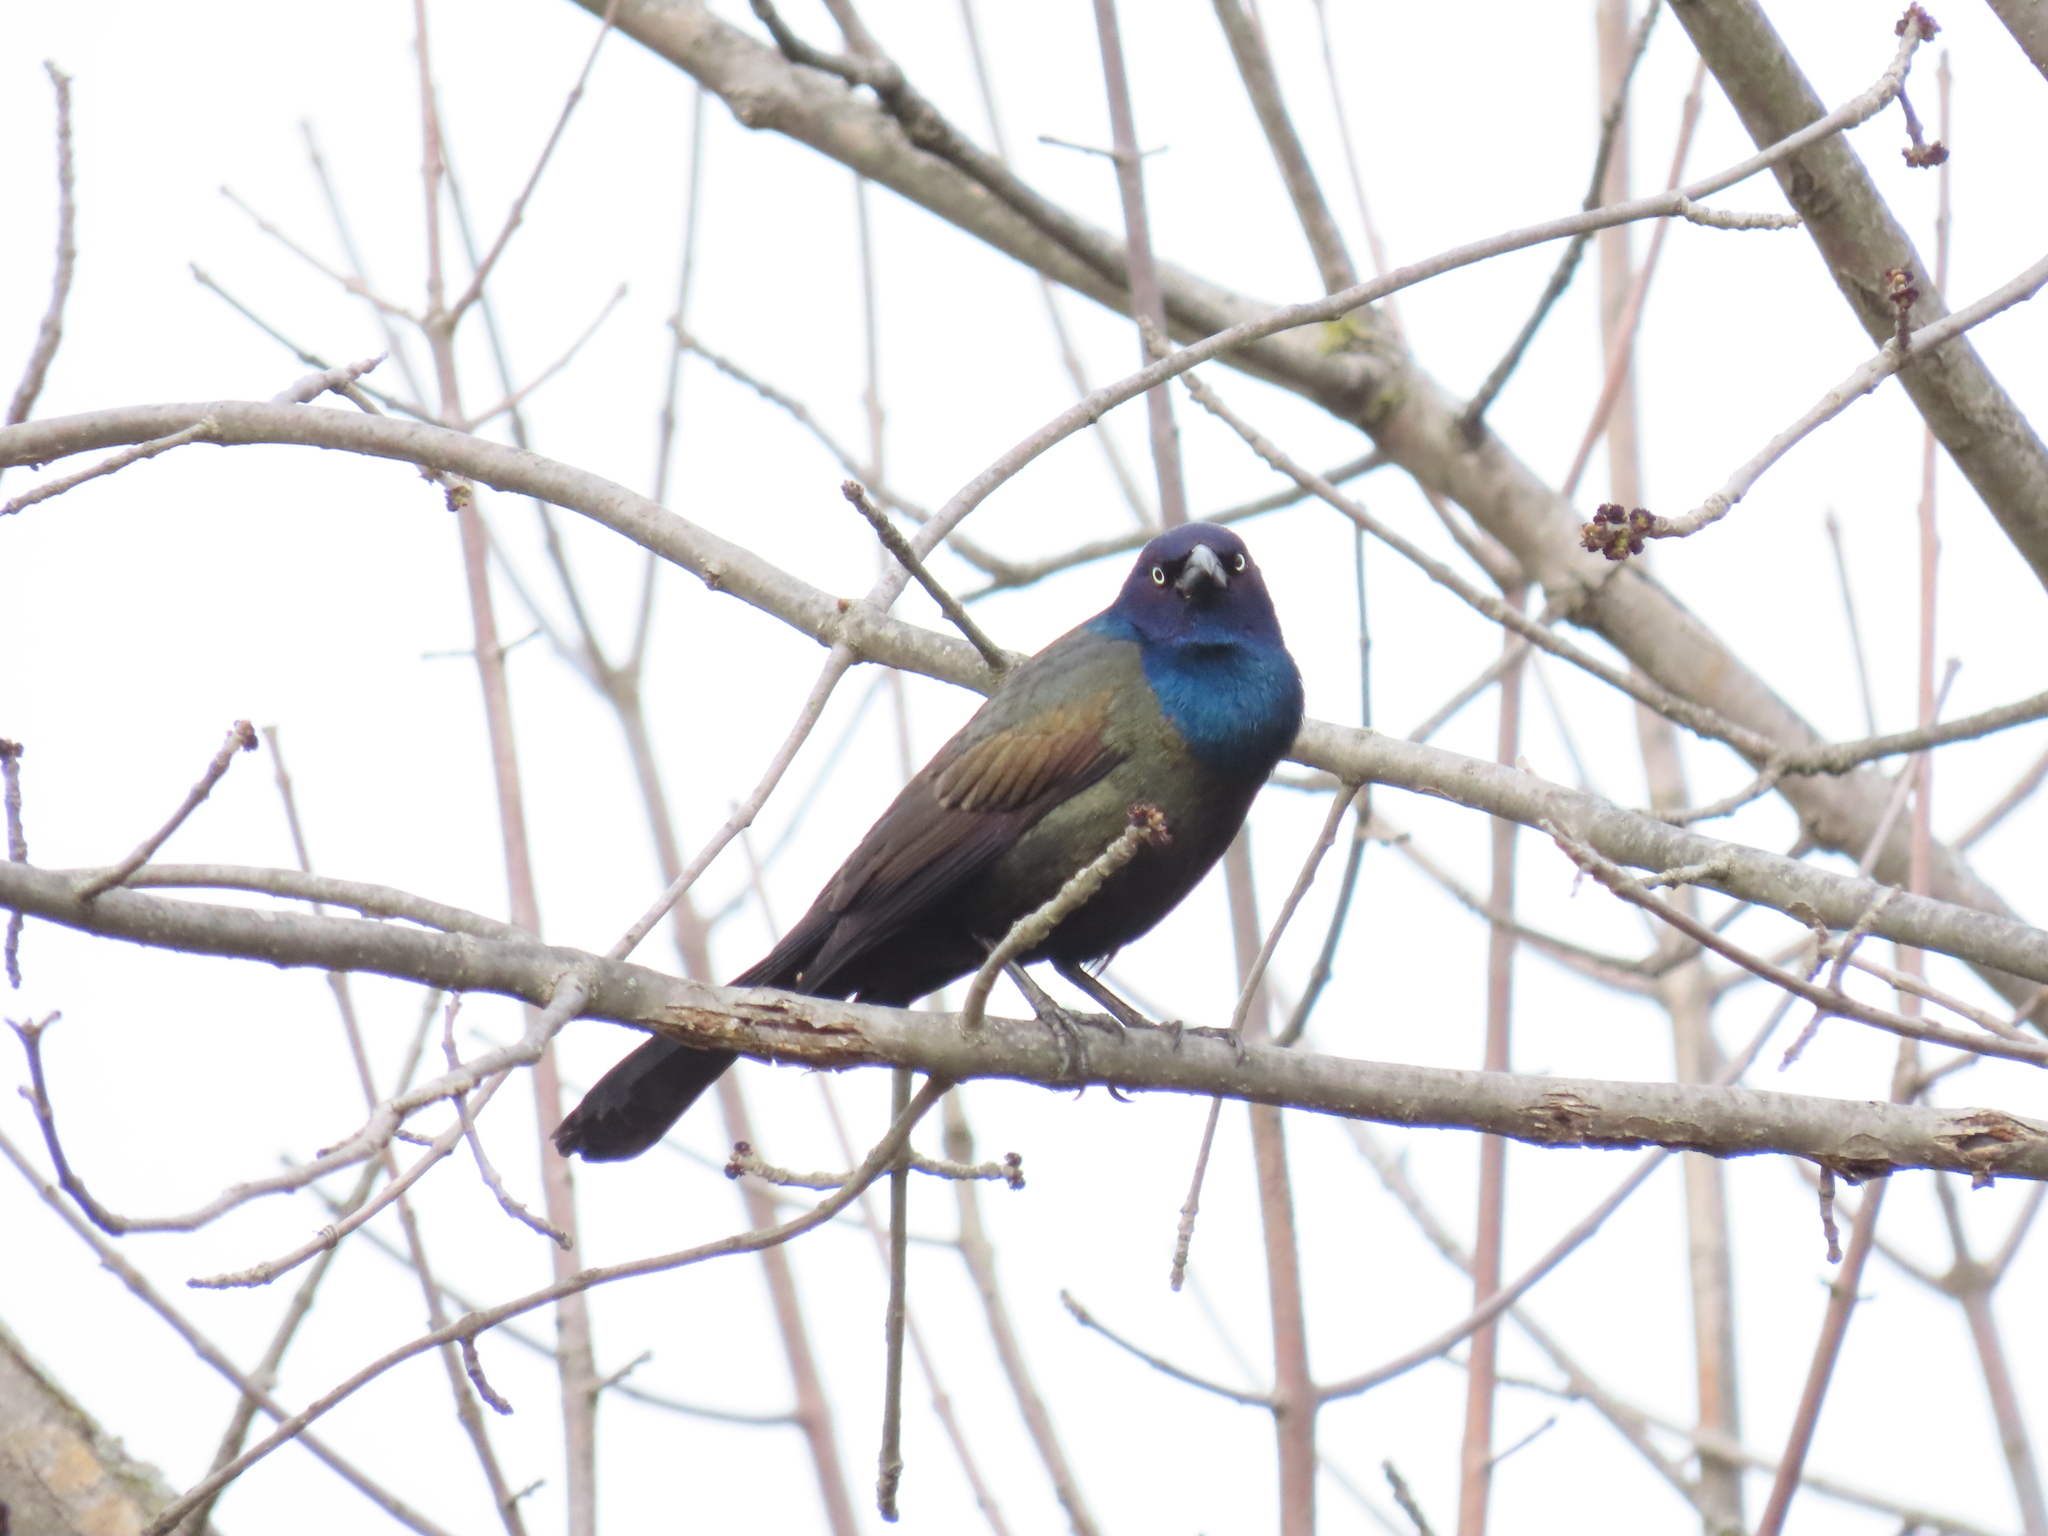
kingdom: Animalia
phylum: Chordata
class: Aves
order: Passeriformes
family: Icteridae
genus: Quiscalus
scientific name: Quiscalus quiscula
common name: Common grackle
